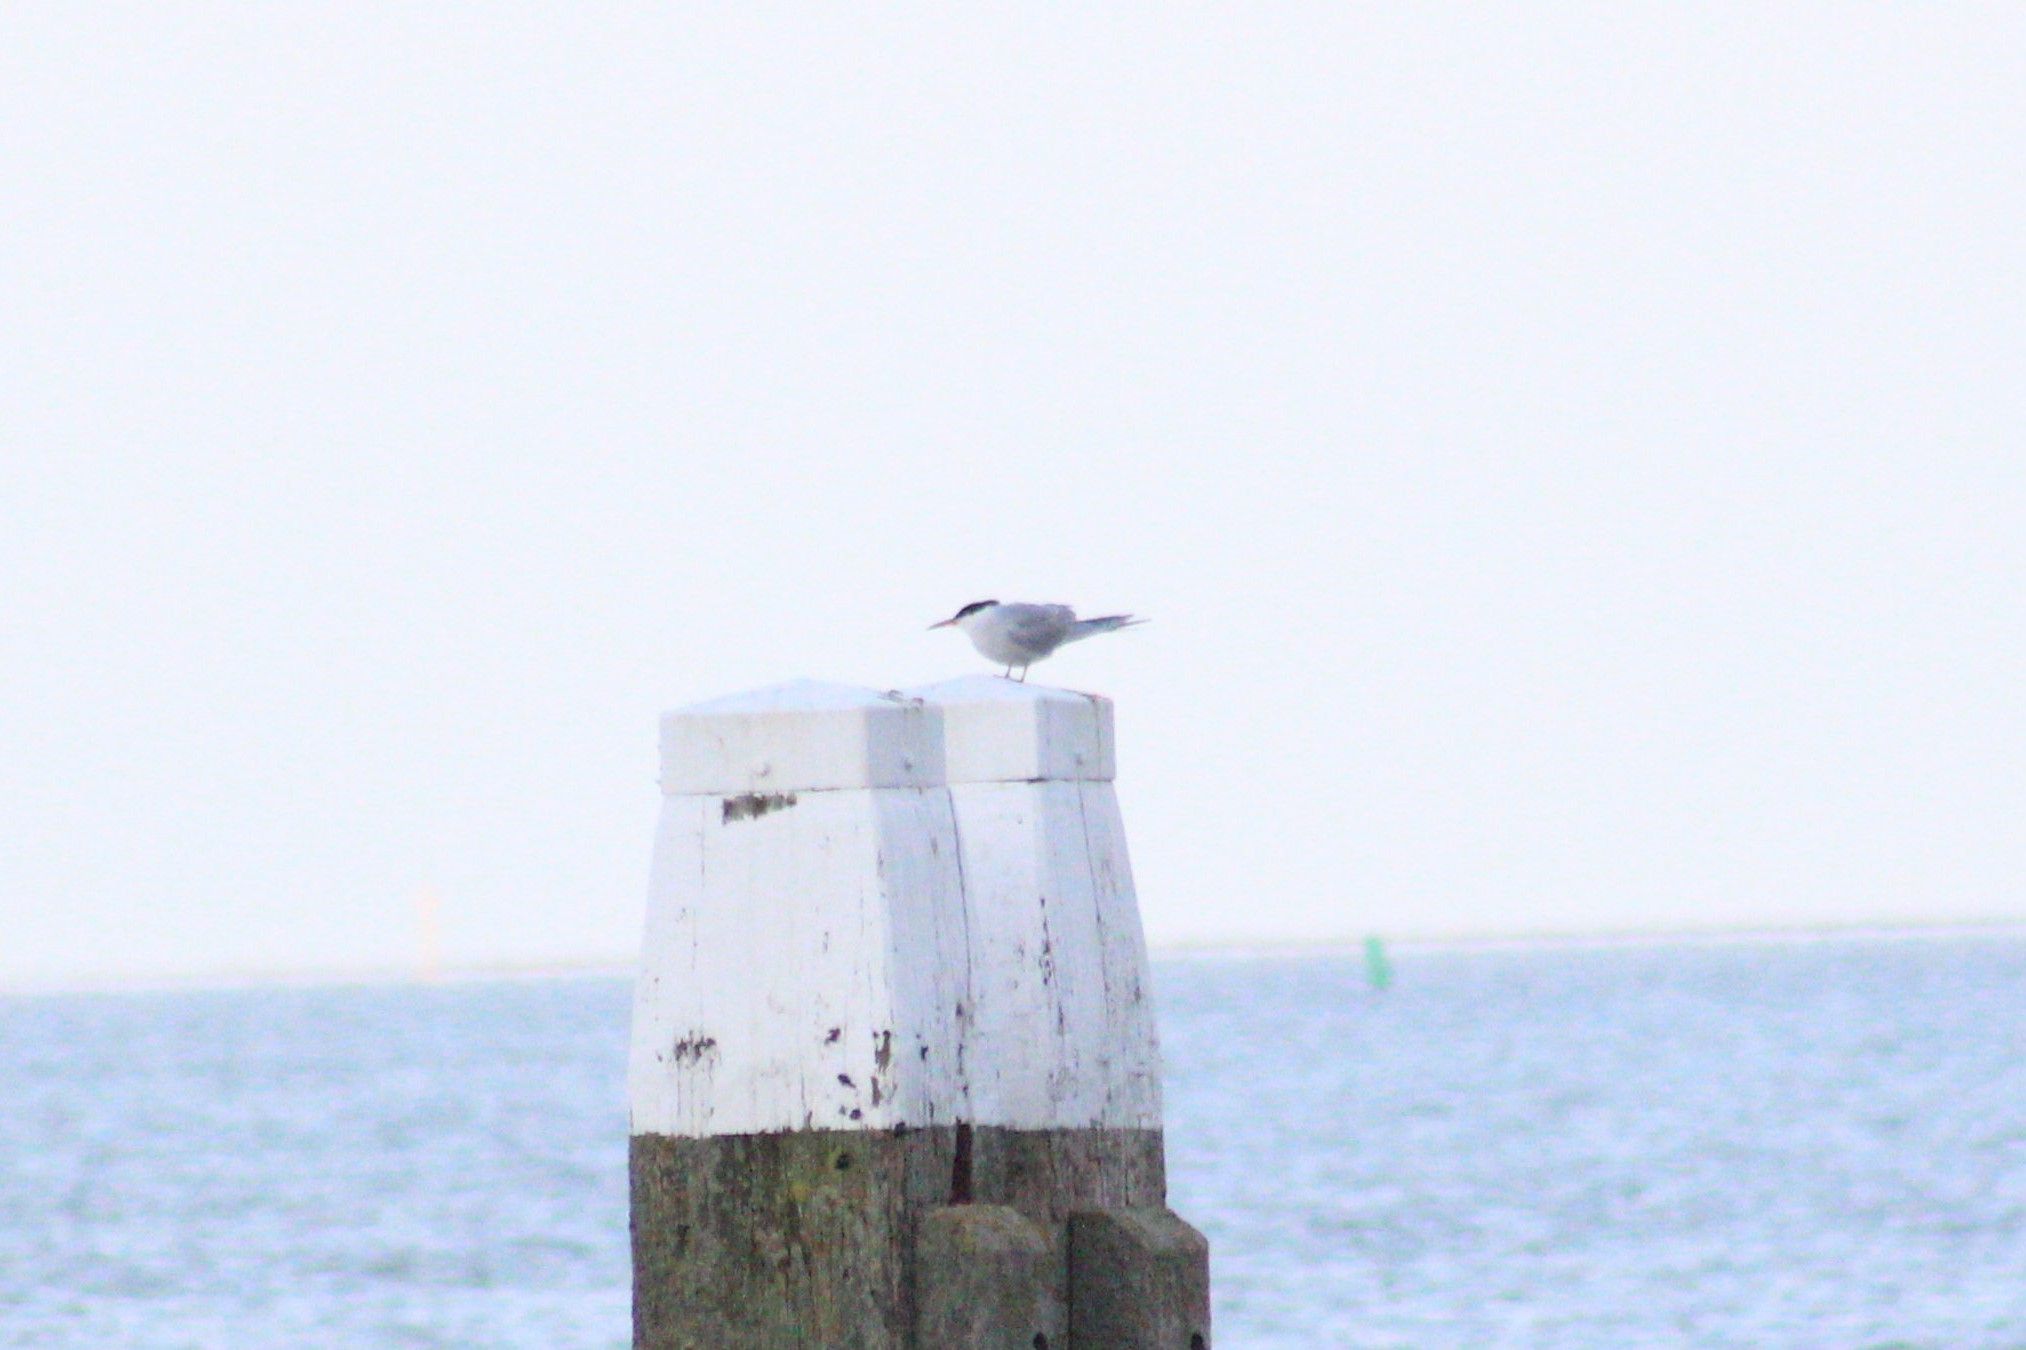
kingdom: Animalia
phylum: Chordata
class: Aves
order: Charadriiformes
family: Laridae
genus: Sterna
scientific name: Sterna hirundo
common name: Common tern
